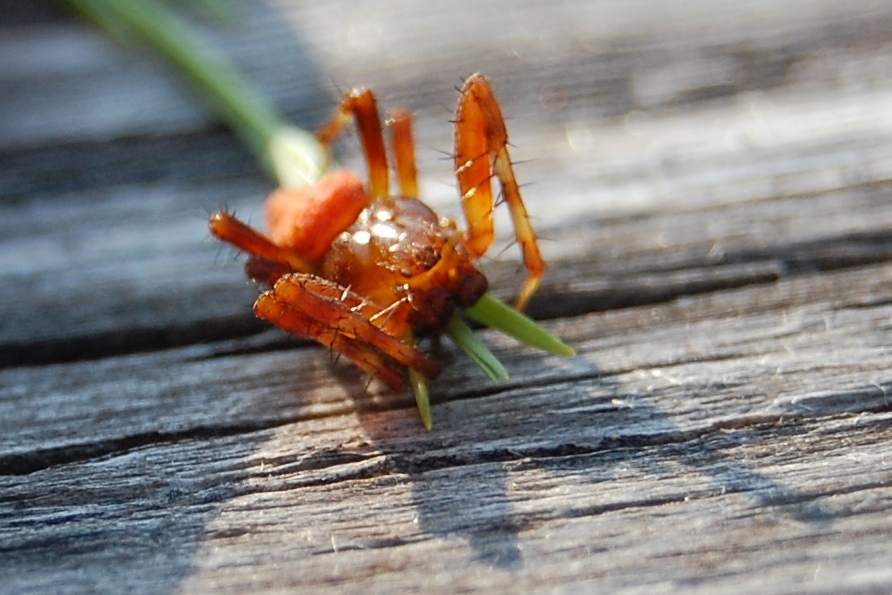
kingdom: Animalia
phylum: Arthropoda
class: Arachnida
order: Araneae
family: Araneidae
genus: Araneus
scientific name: Araneus alsine
